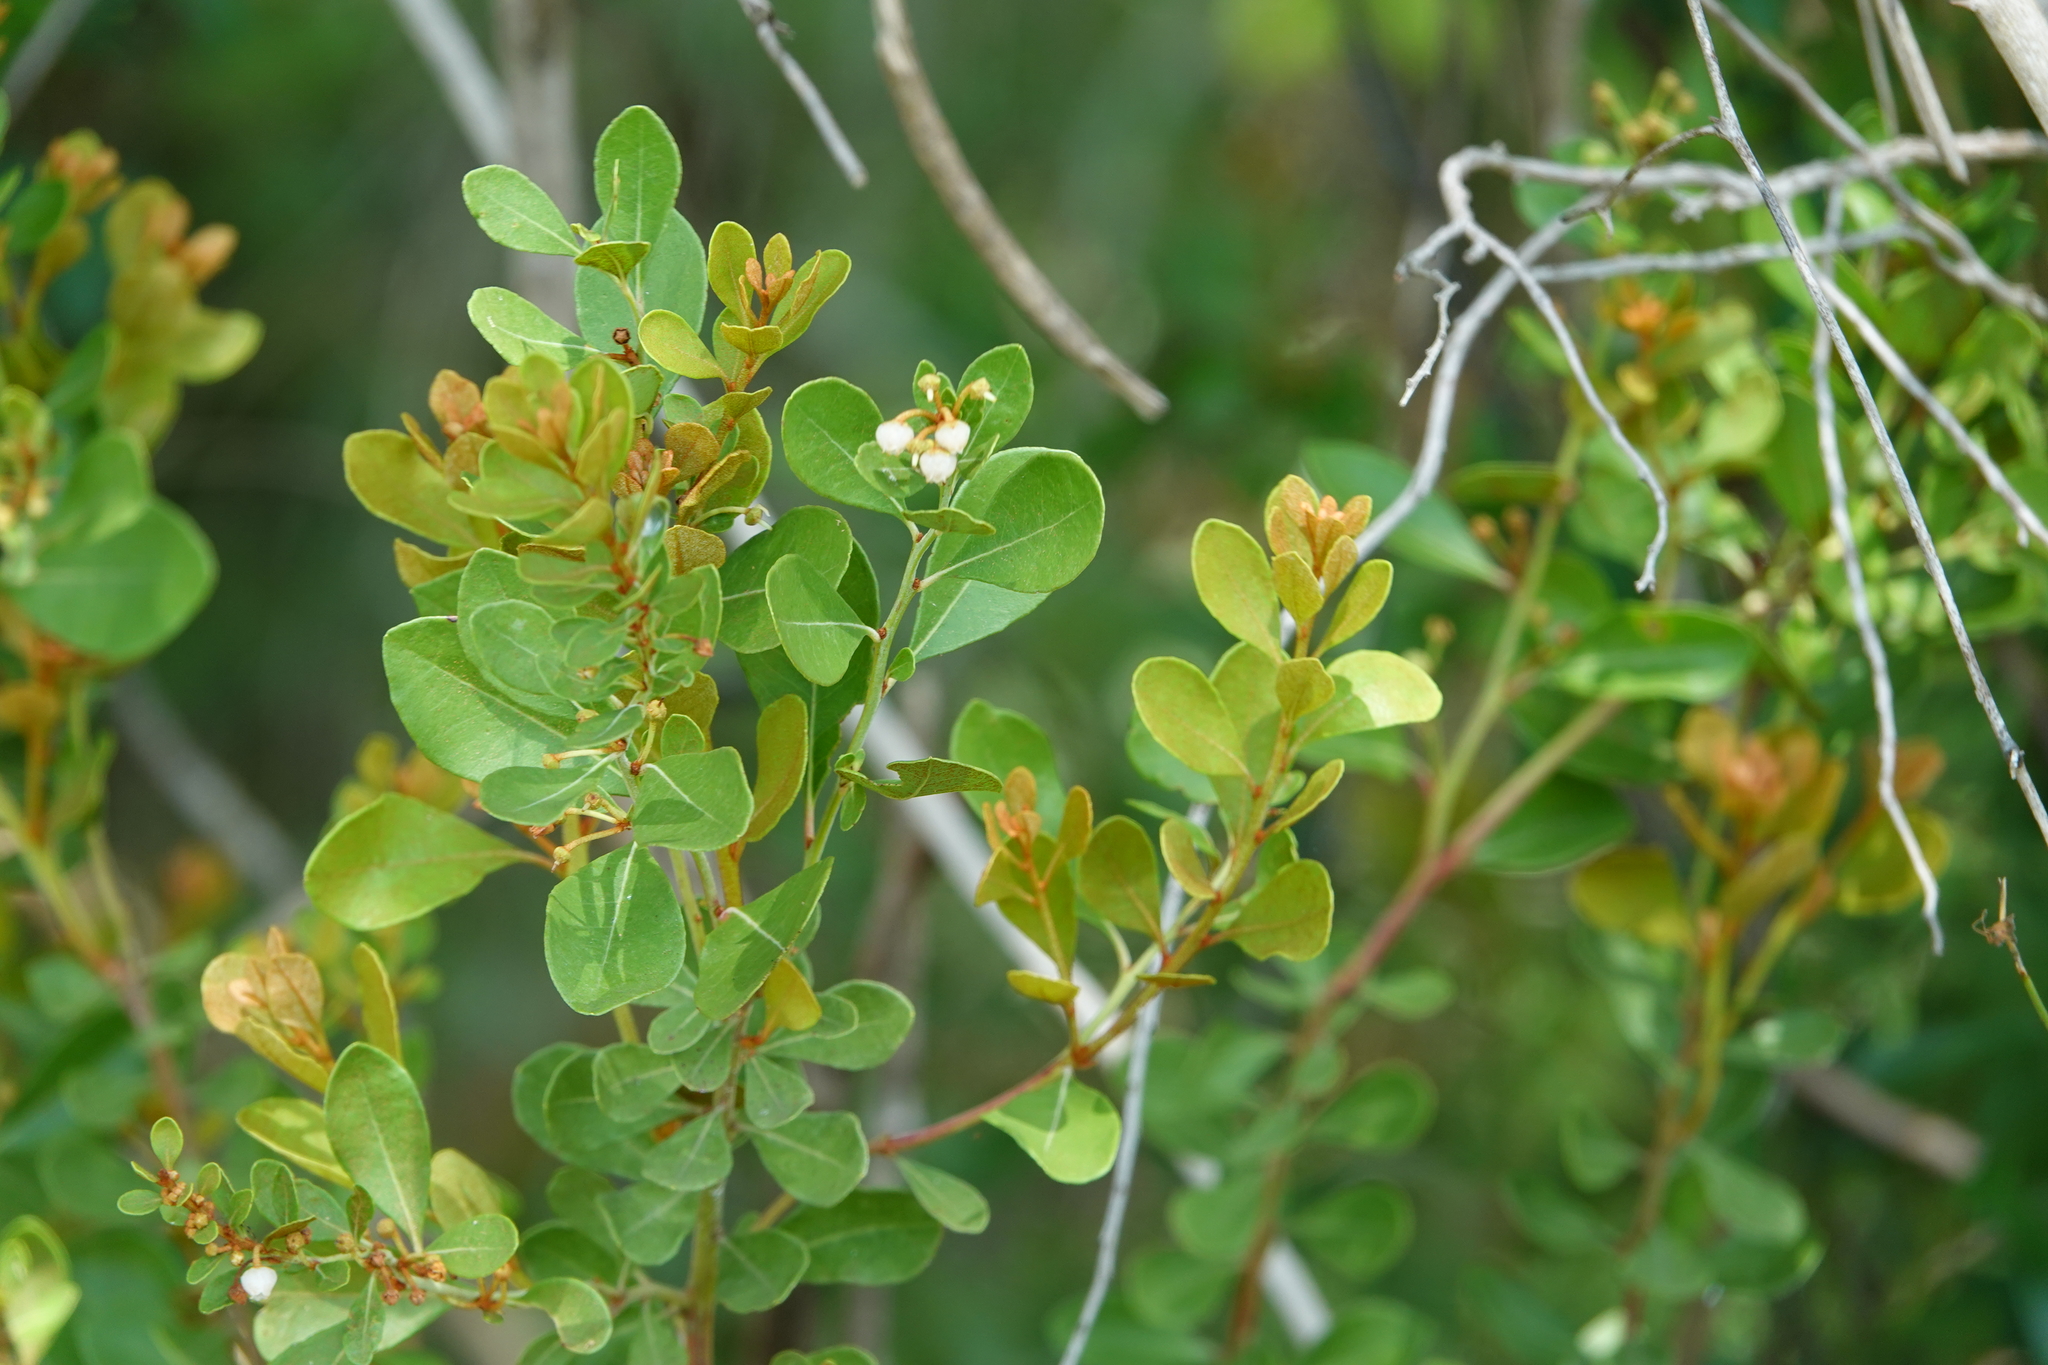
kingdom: Plantae
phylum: Tracheophyta
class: Magnoliopsida
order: Ericales
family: Ericaceae
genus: Lyonia
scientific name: Lyonia fruticosa
